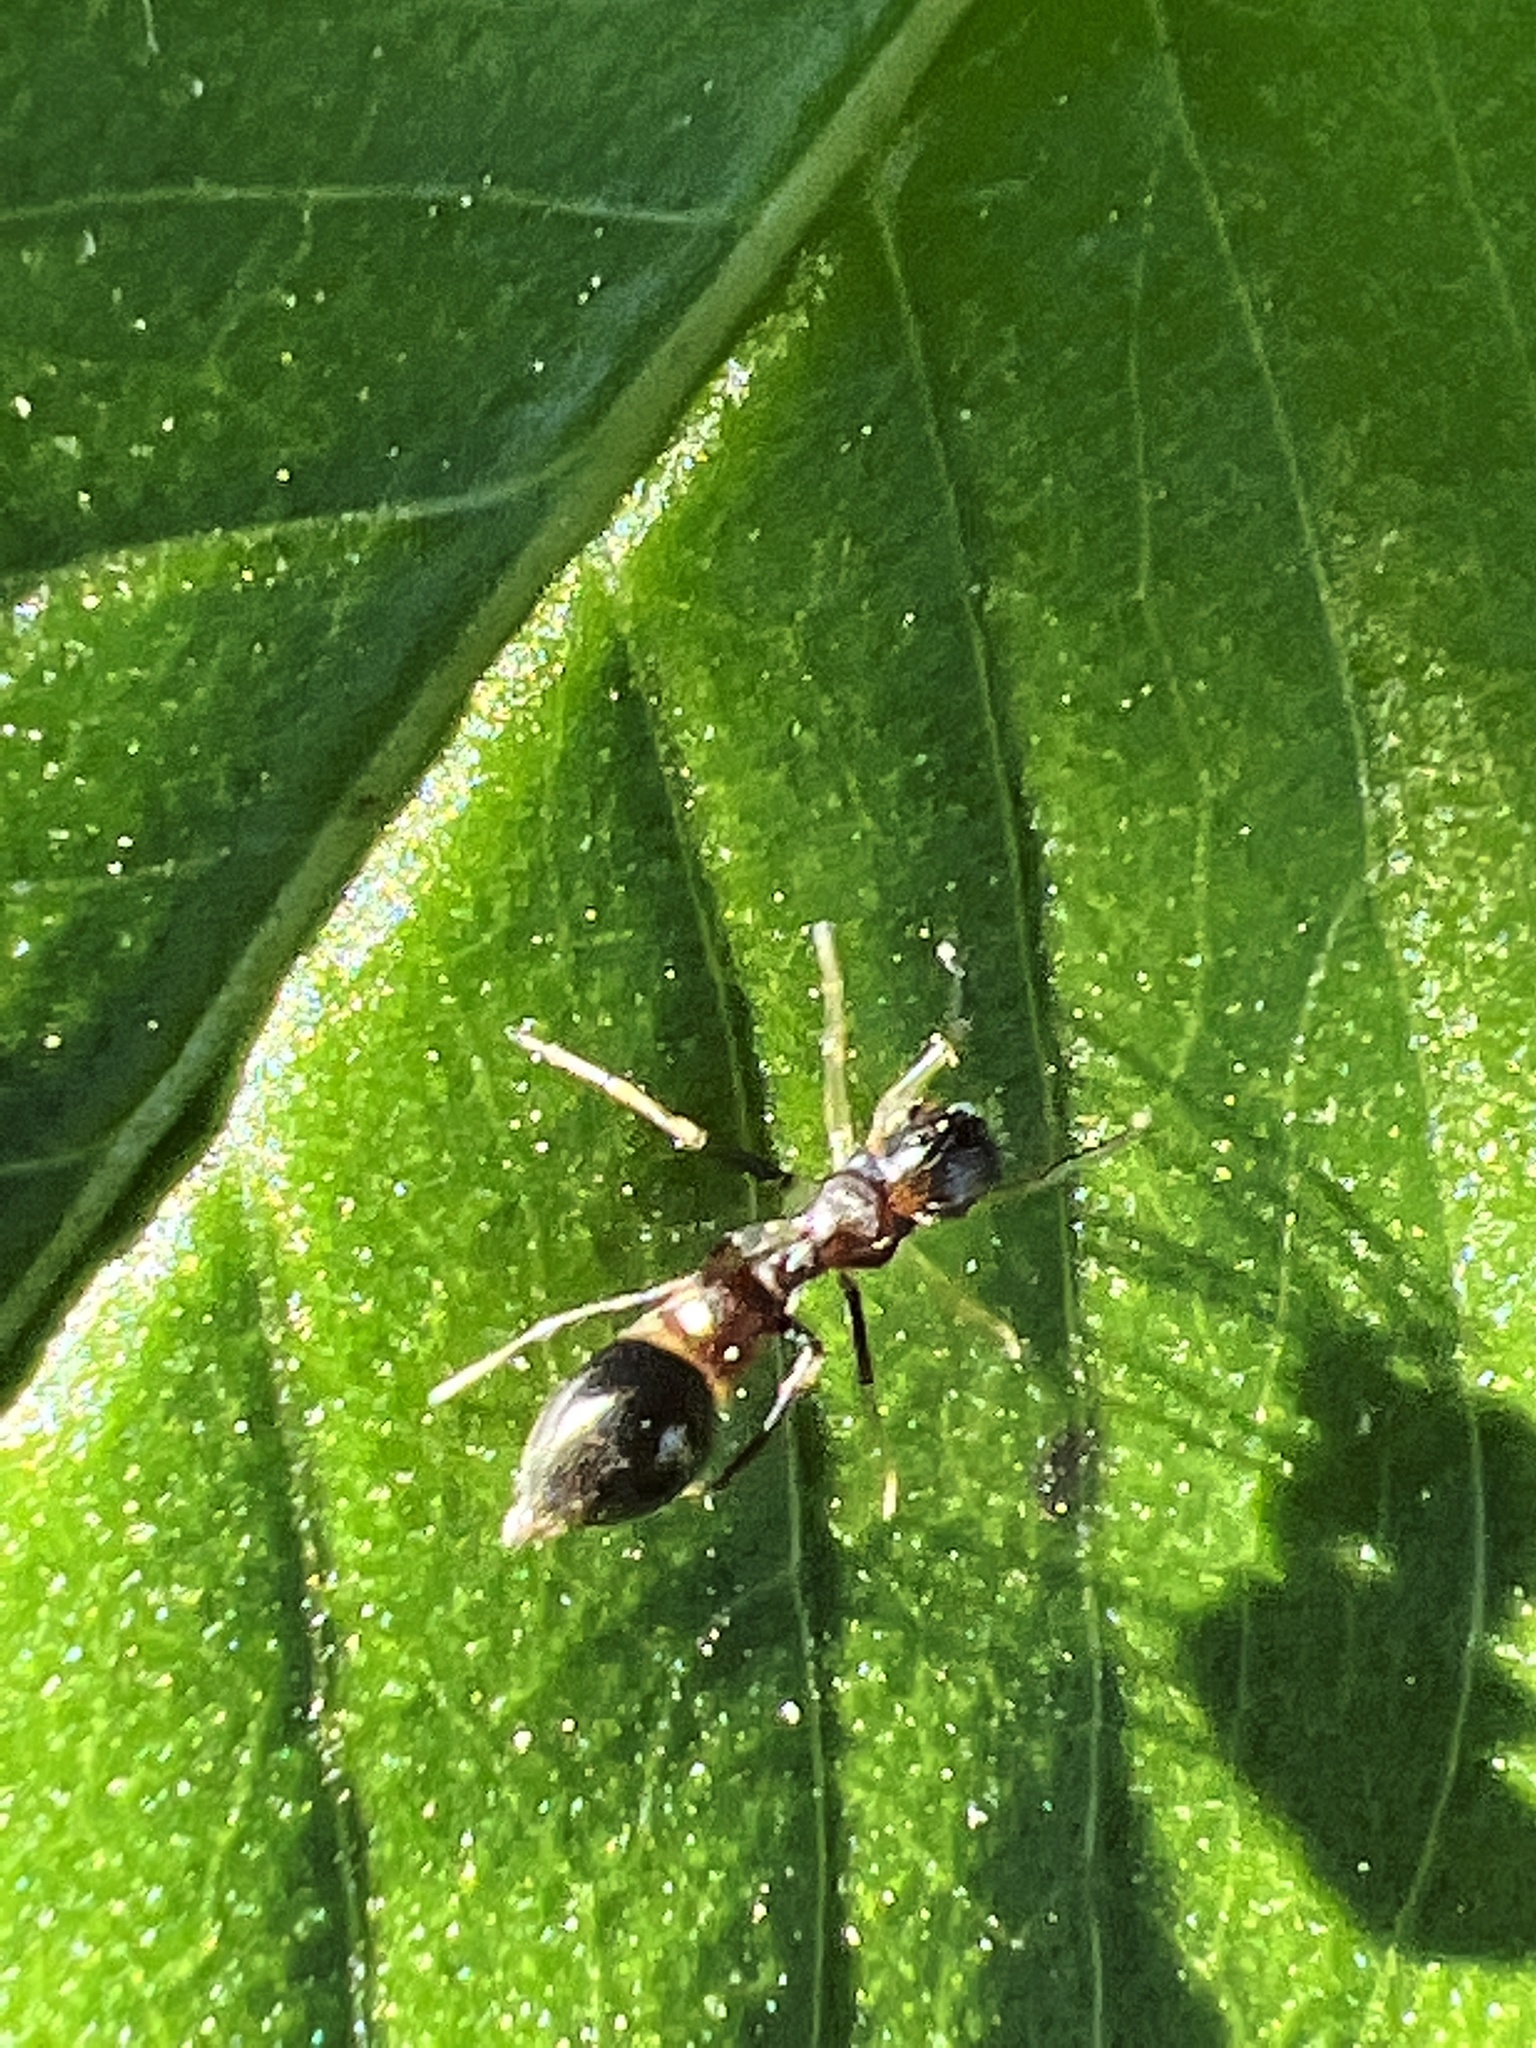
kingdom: Animalia
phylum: Arthropoda
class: Arachnida
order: Araneae
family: Salticidae
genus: Synemosyna
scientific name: Synemosyna formica
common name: Slender ant-mimic jumping spider
